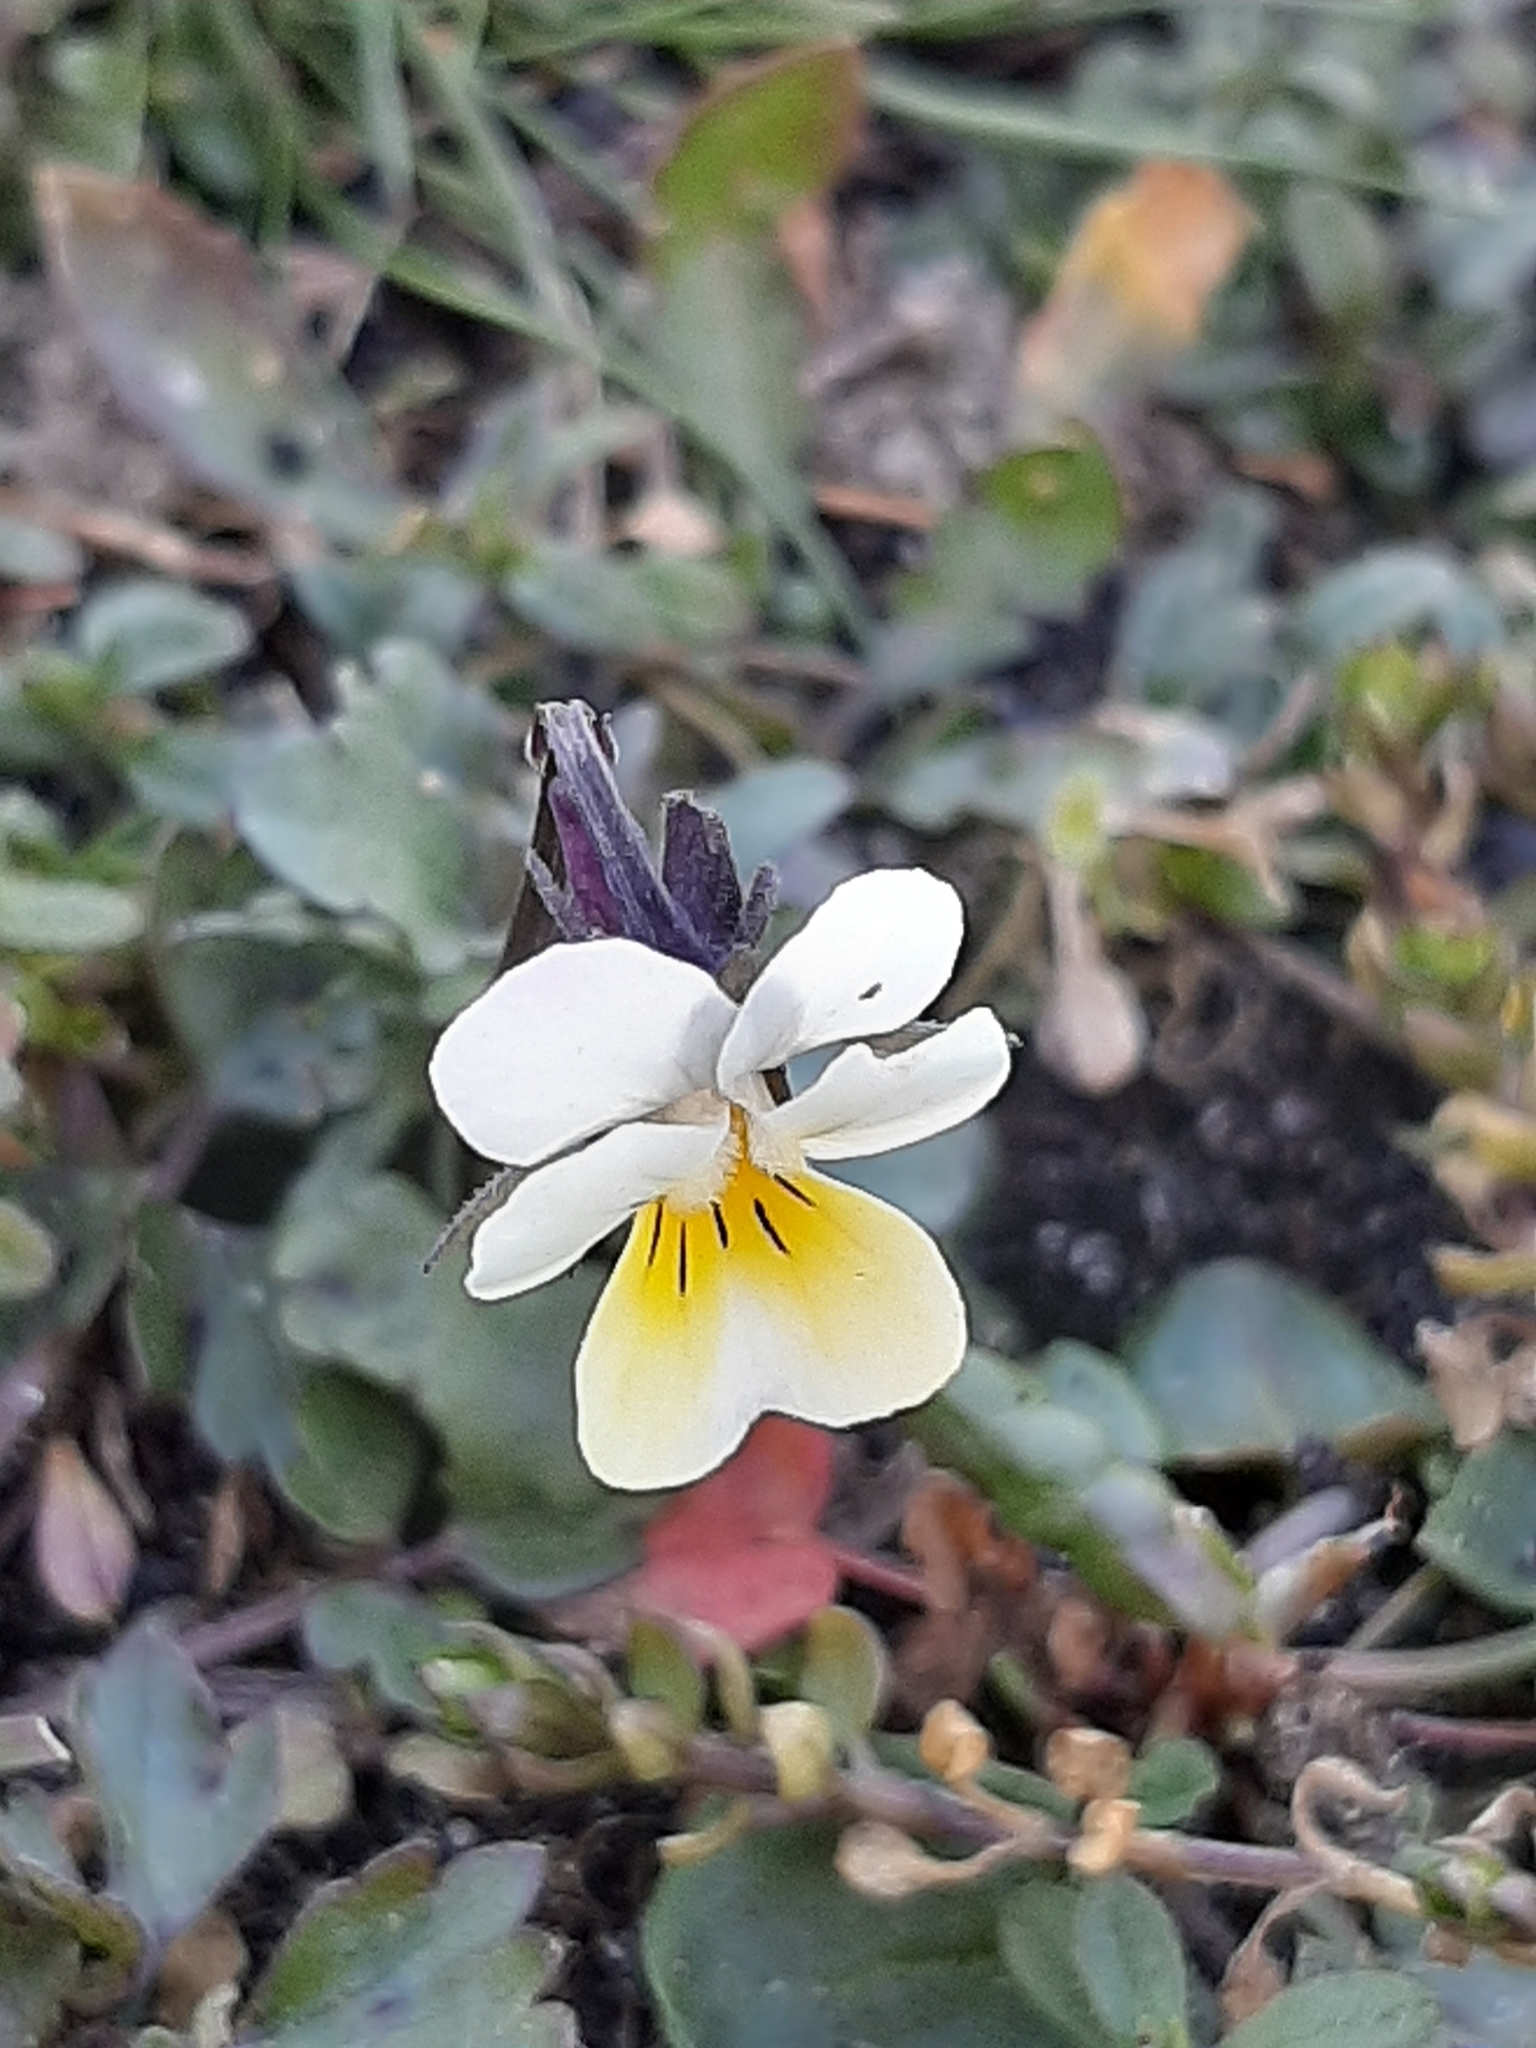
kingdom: Plantae
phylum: Tracheophyta
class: Magnoliopsida
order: Malpighiales
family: Violaceae
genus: Viola
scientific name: Viola arvensis
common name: Field pansy
